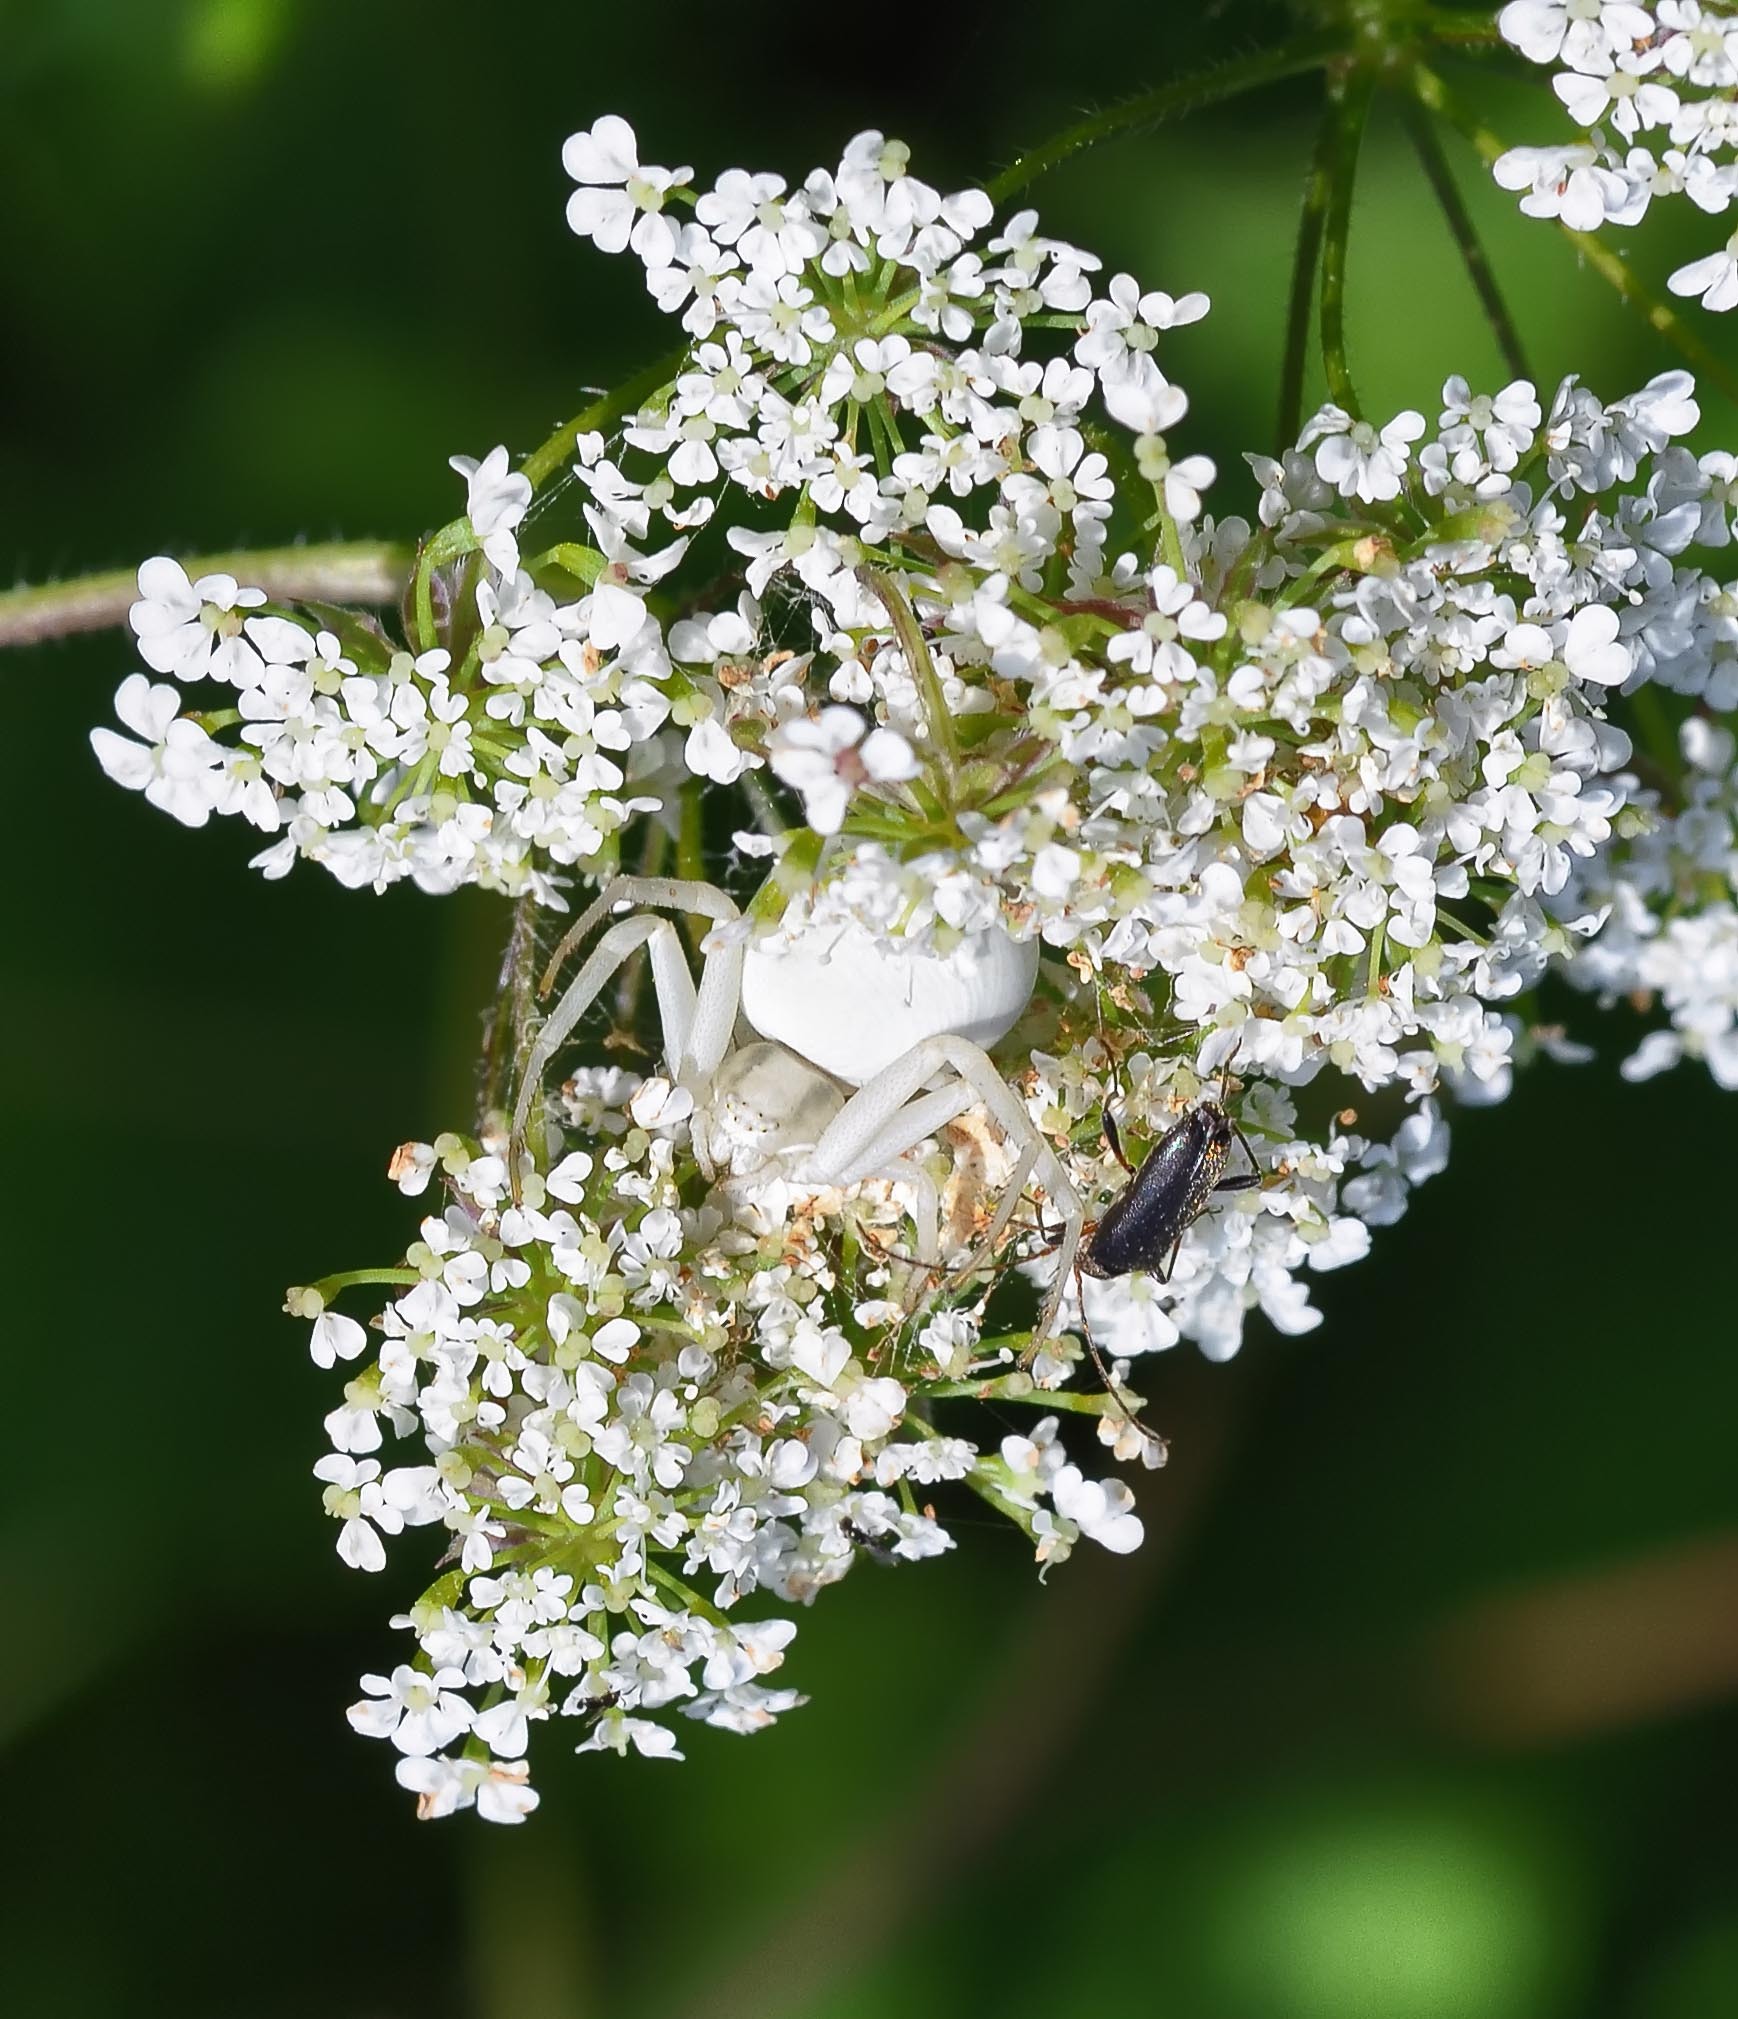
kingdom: Animalia
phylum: Arthropoda
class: Arachnida
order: Araneae
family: Thomisidae
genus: Misumena
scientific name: Misumena vatia
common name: Goldenrod crab spider
